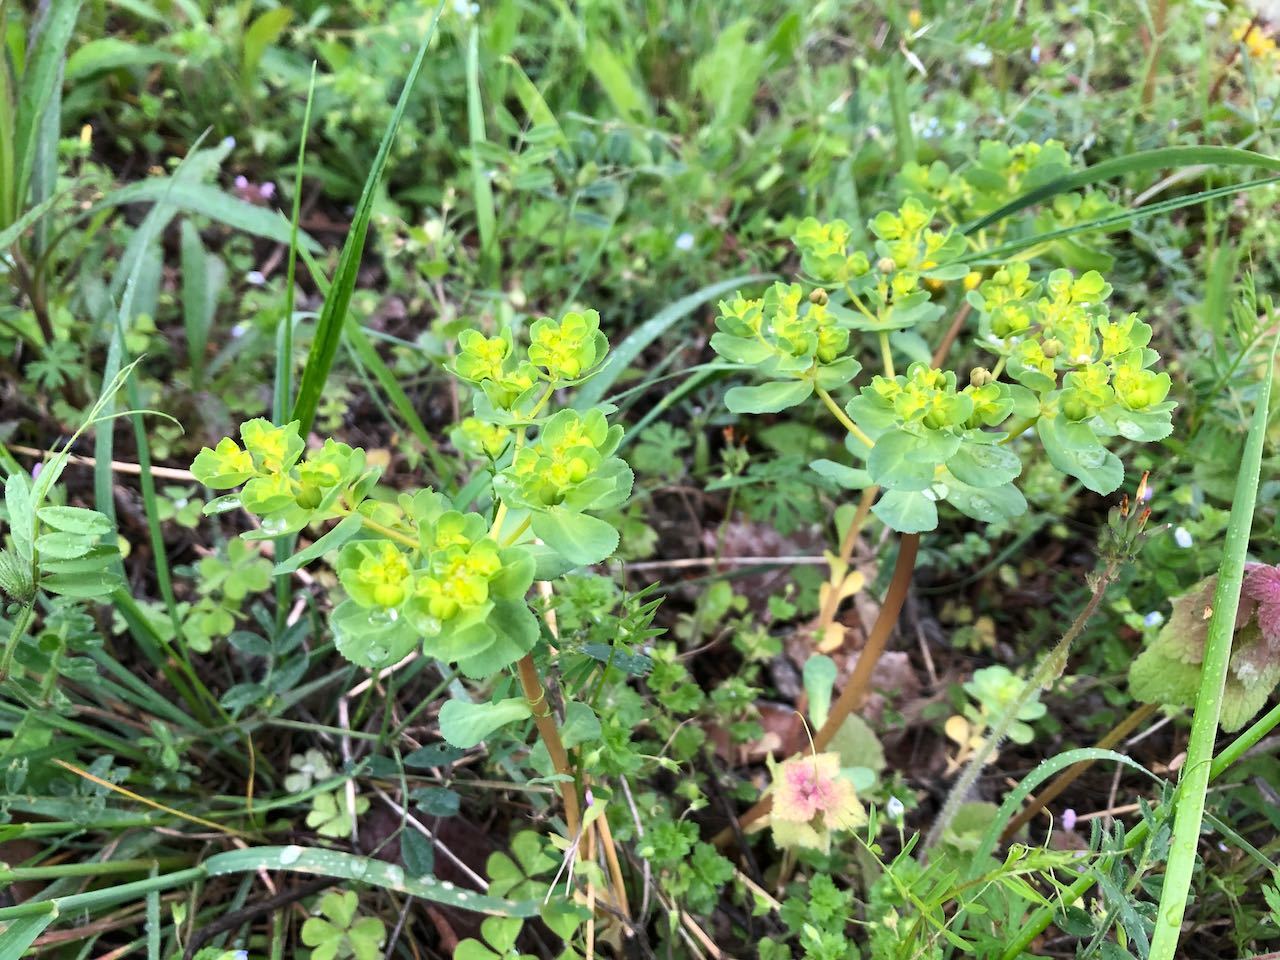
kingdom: Plantae
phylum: Tracheophyta
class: Magnoliopsida
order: Malpighiales
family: Euphorbiaceae
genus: Euphorbia
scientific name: Euphorbia helioscopia
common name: Sun spurge
